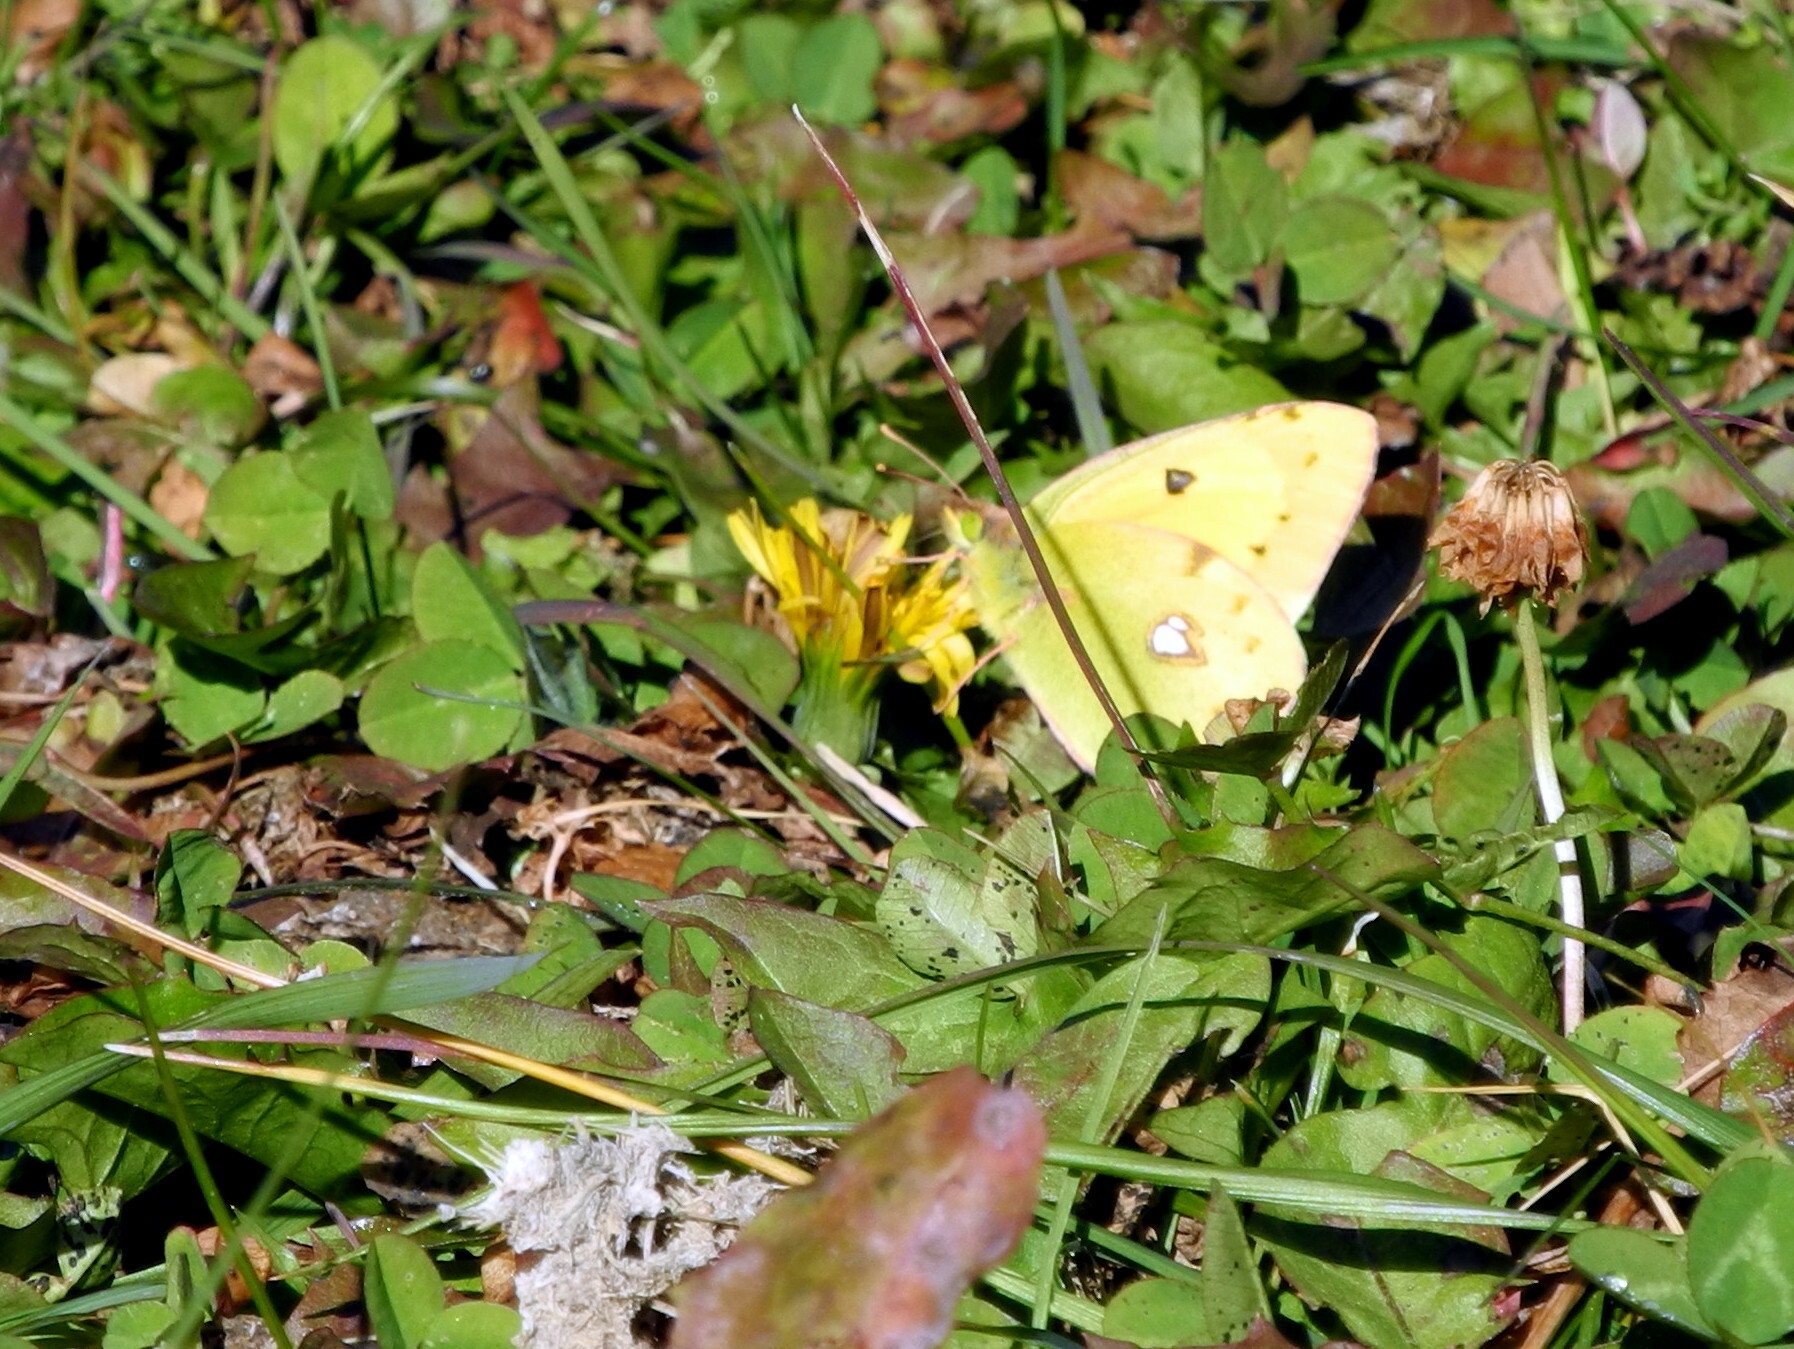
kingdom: Animalia
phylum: Arthropoda
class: Insecta
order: Lepidoptera
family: Pieridae
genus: Colias
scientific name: Colias croceus
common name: Clouded yellow
